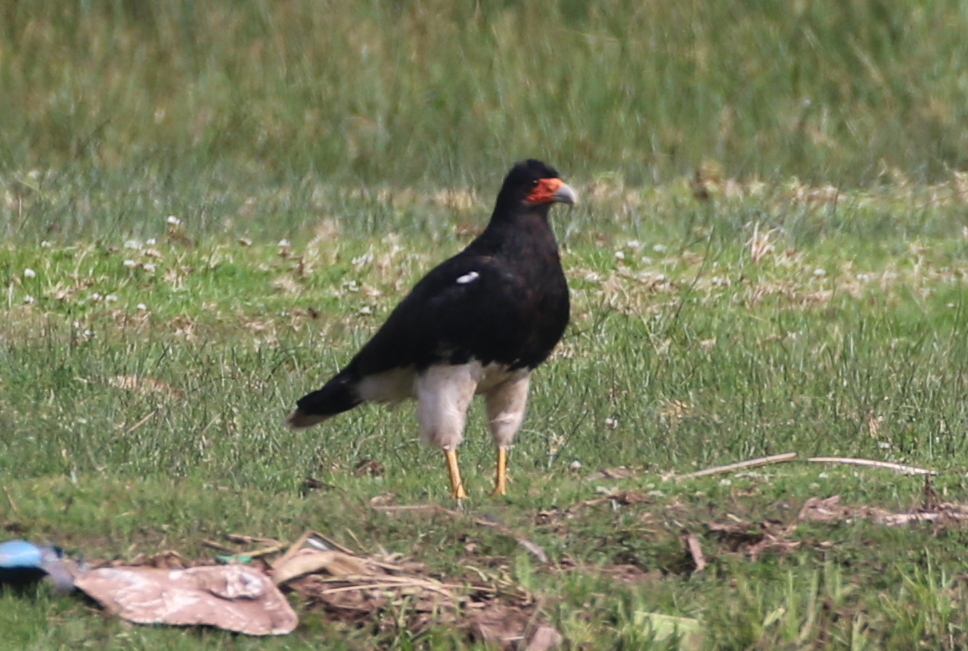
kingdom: Animalia
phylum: Chordata
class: Aves
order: Falconiformes
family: Falconidae
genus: Daptrius
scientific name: Daptrius
